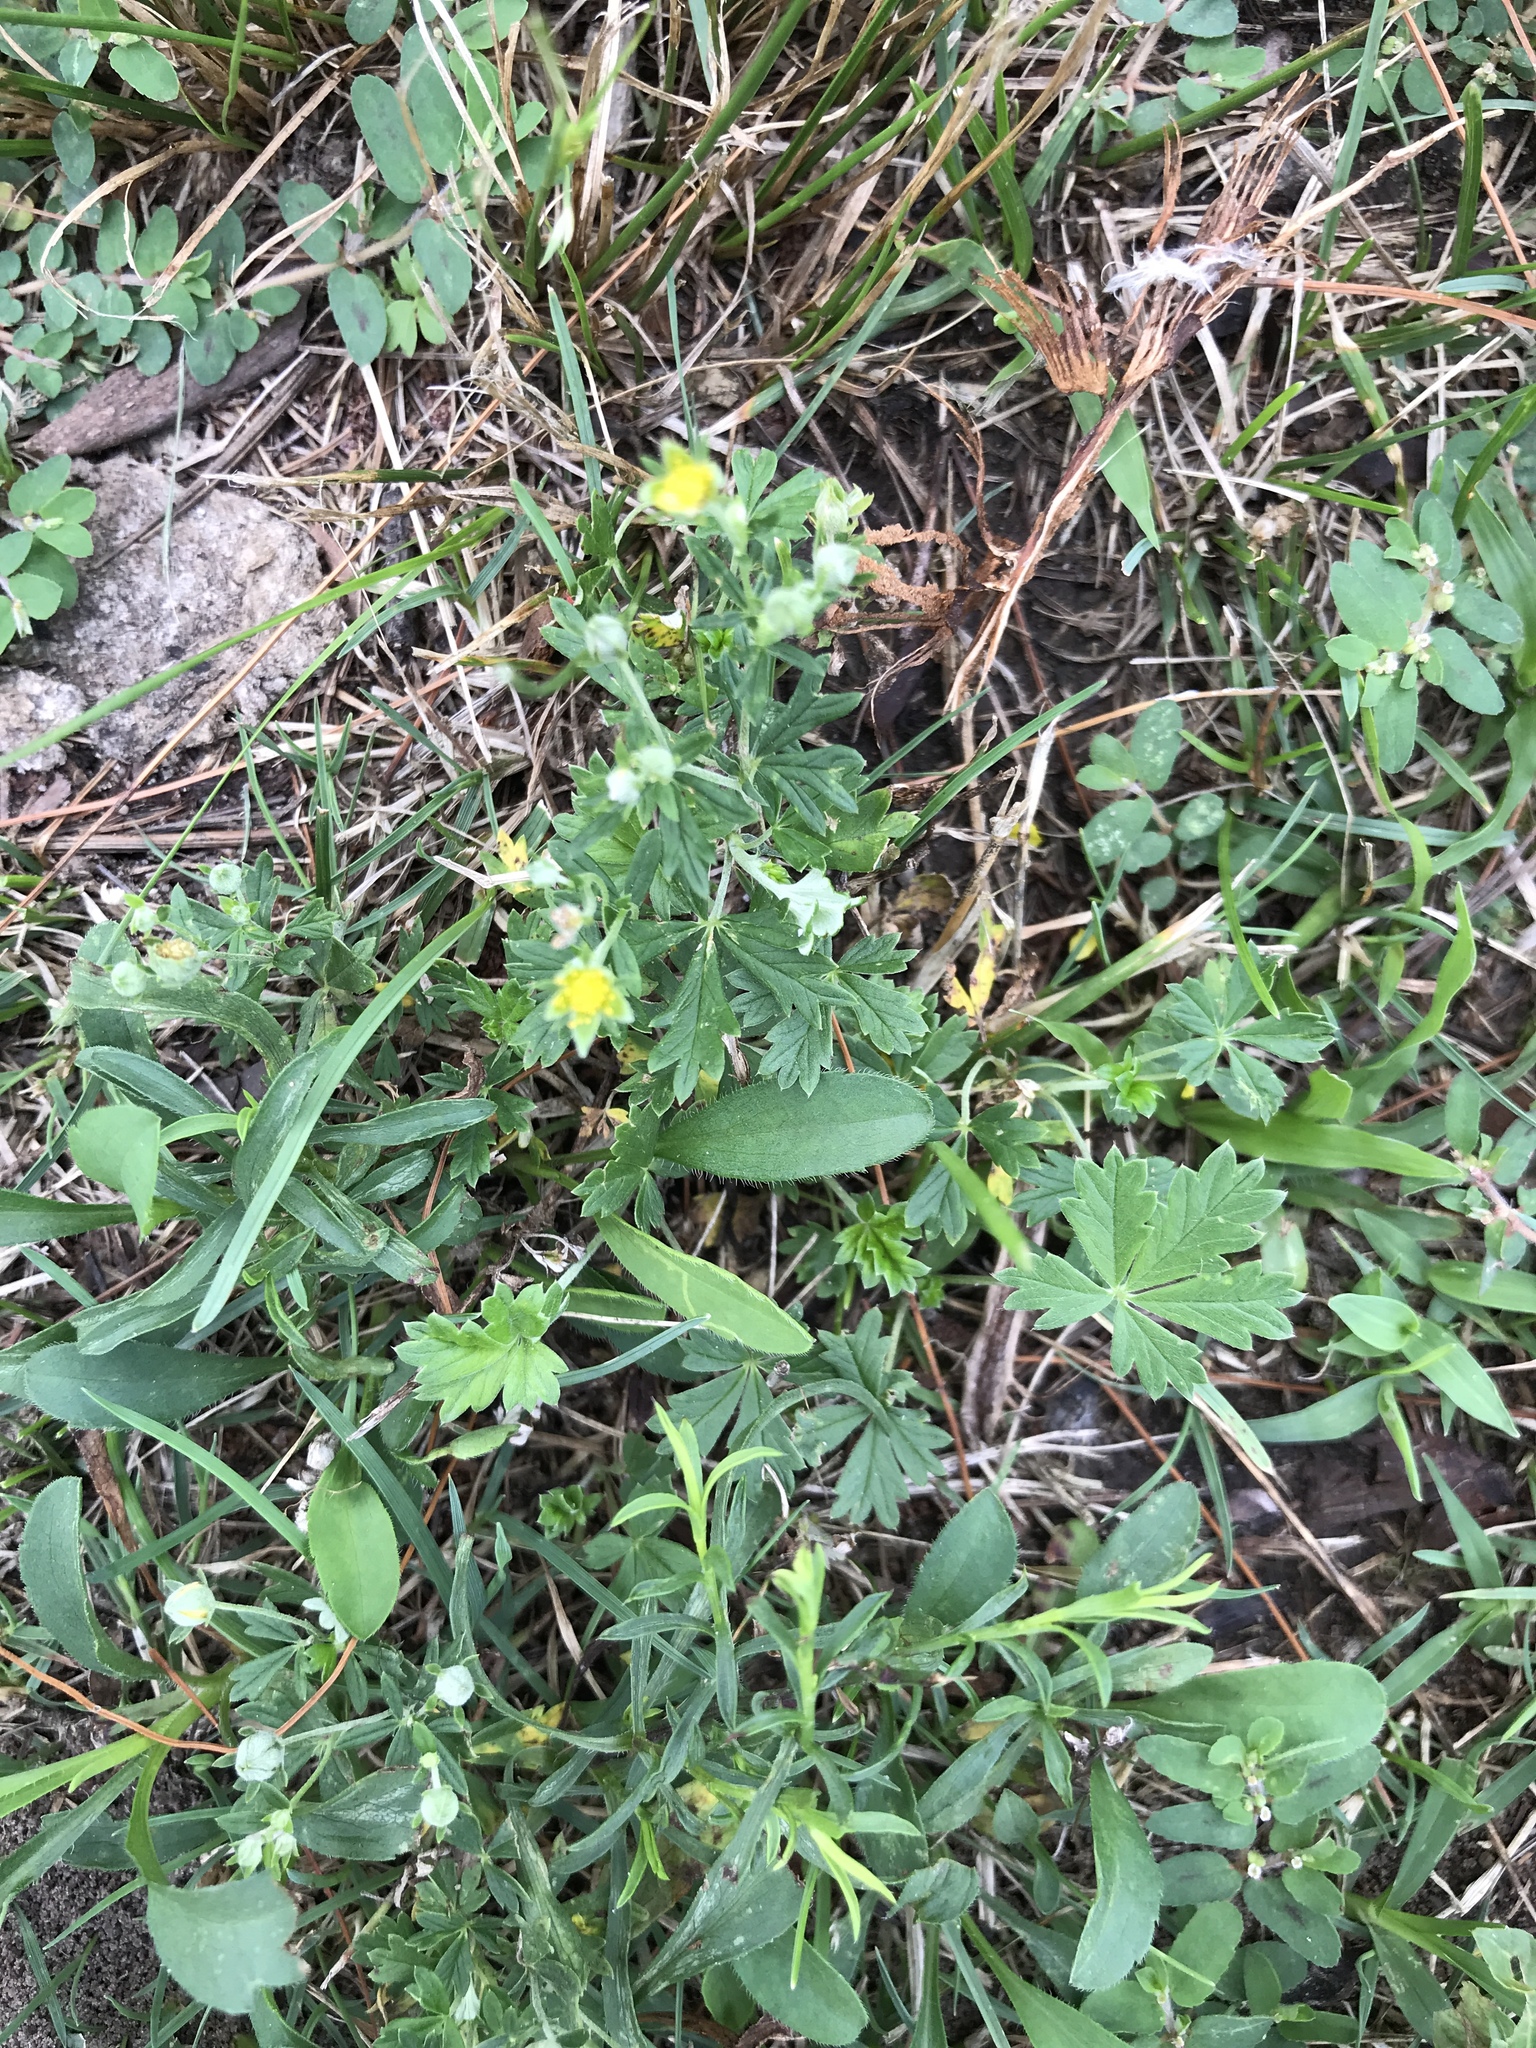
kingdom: Plantae
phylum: Tracheophyta
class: Magnoliopsida
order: Rosales
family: Rosaceae
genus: Potentilla
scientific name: Potentilla argentea
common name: Hoary cinquefoil
